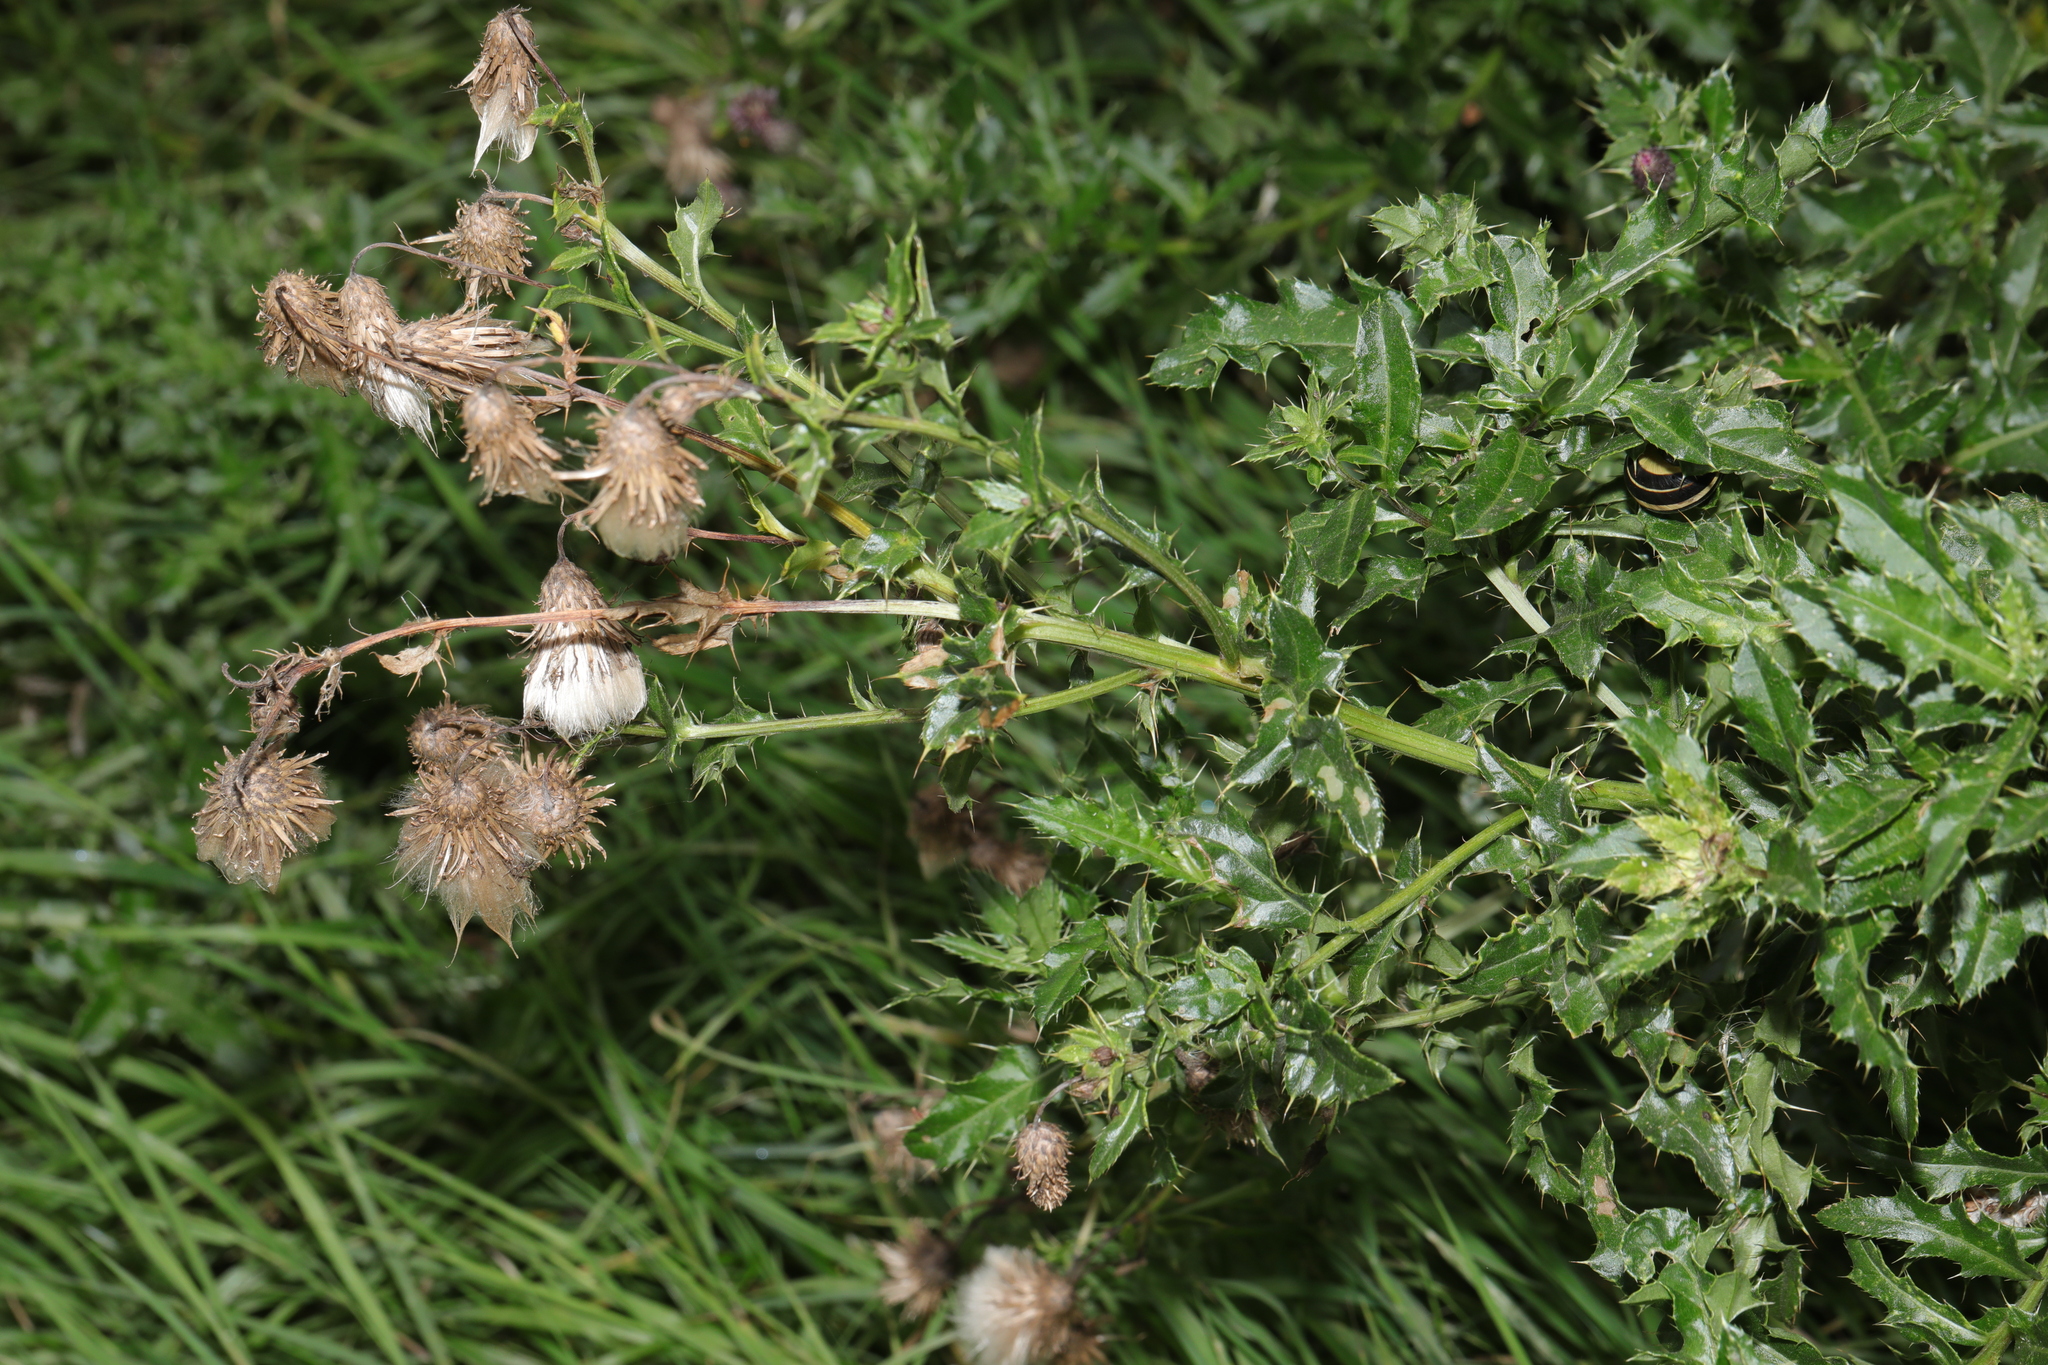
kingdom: Plantae
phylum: Tracheophyta
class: Magnoliopsida
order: Asterales
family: Asteraceae
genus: Cirsium
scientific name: Cirsium arvense
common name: Creeping thistle
